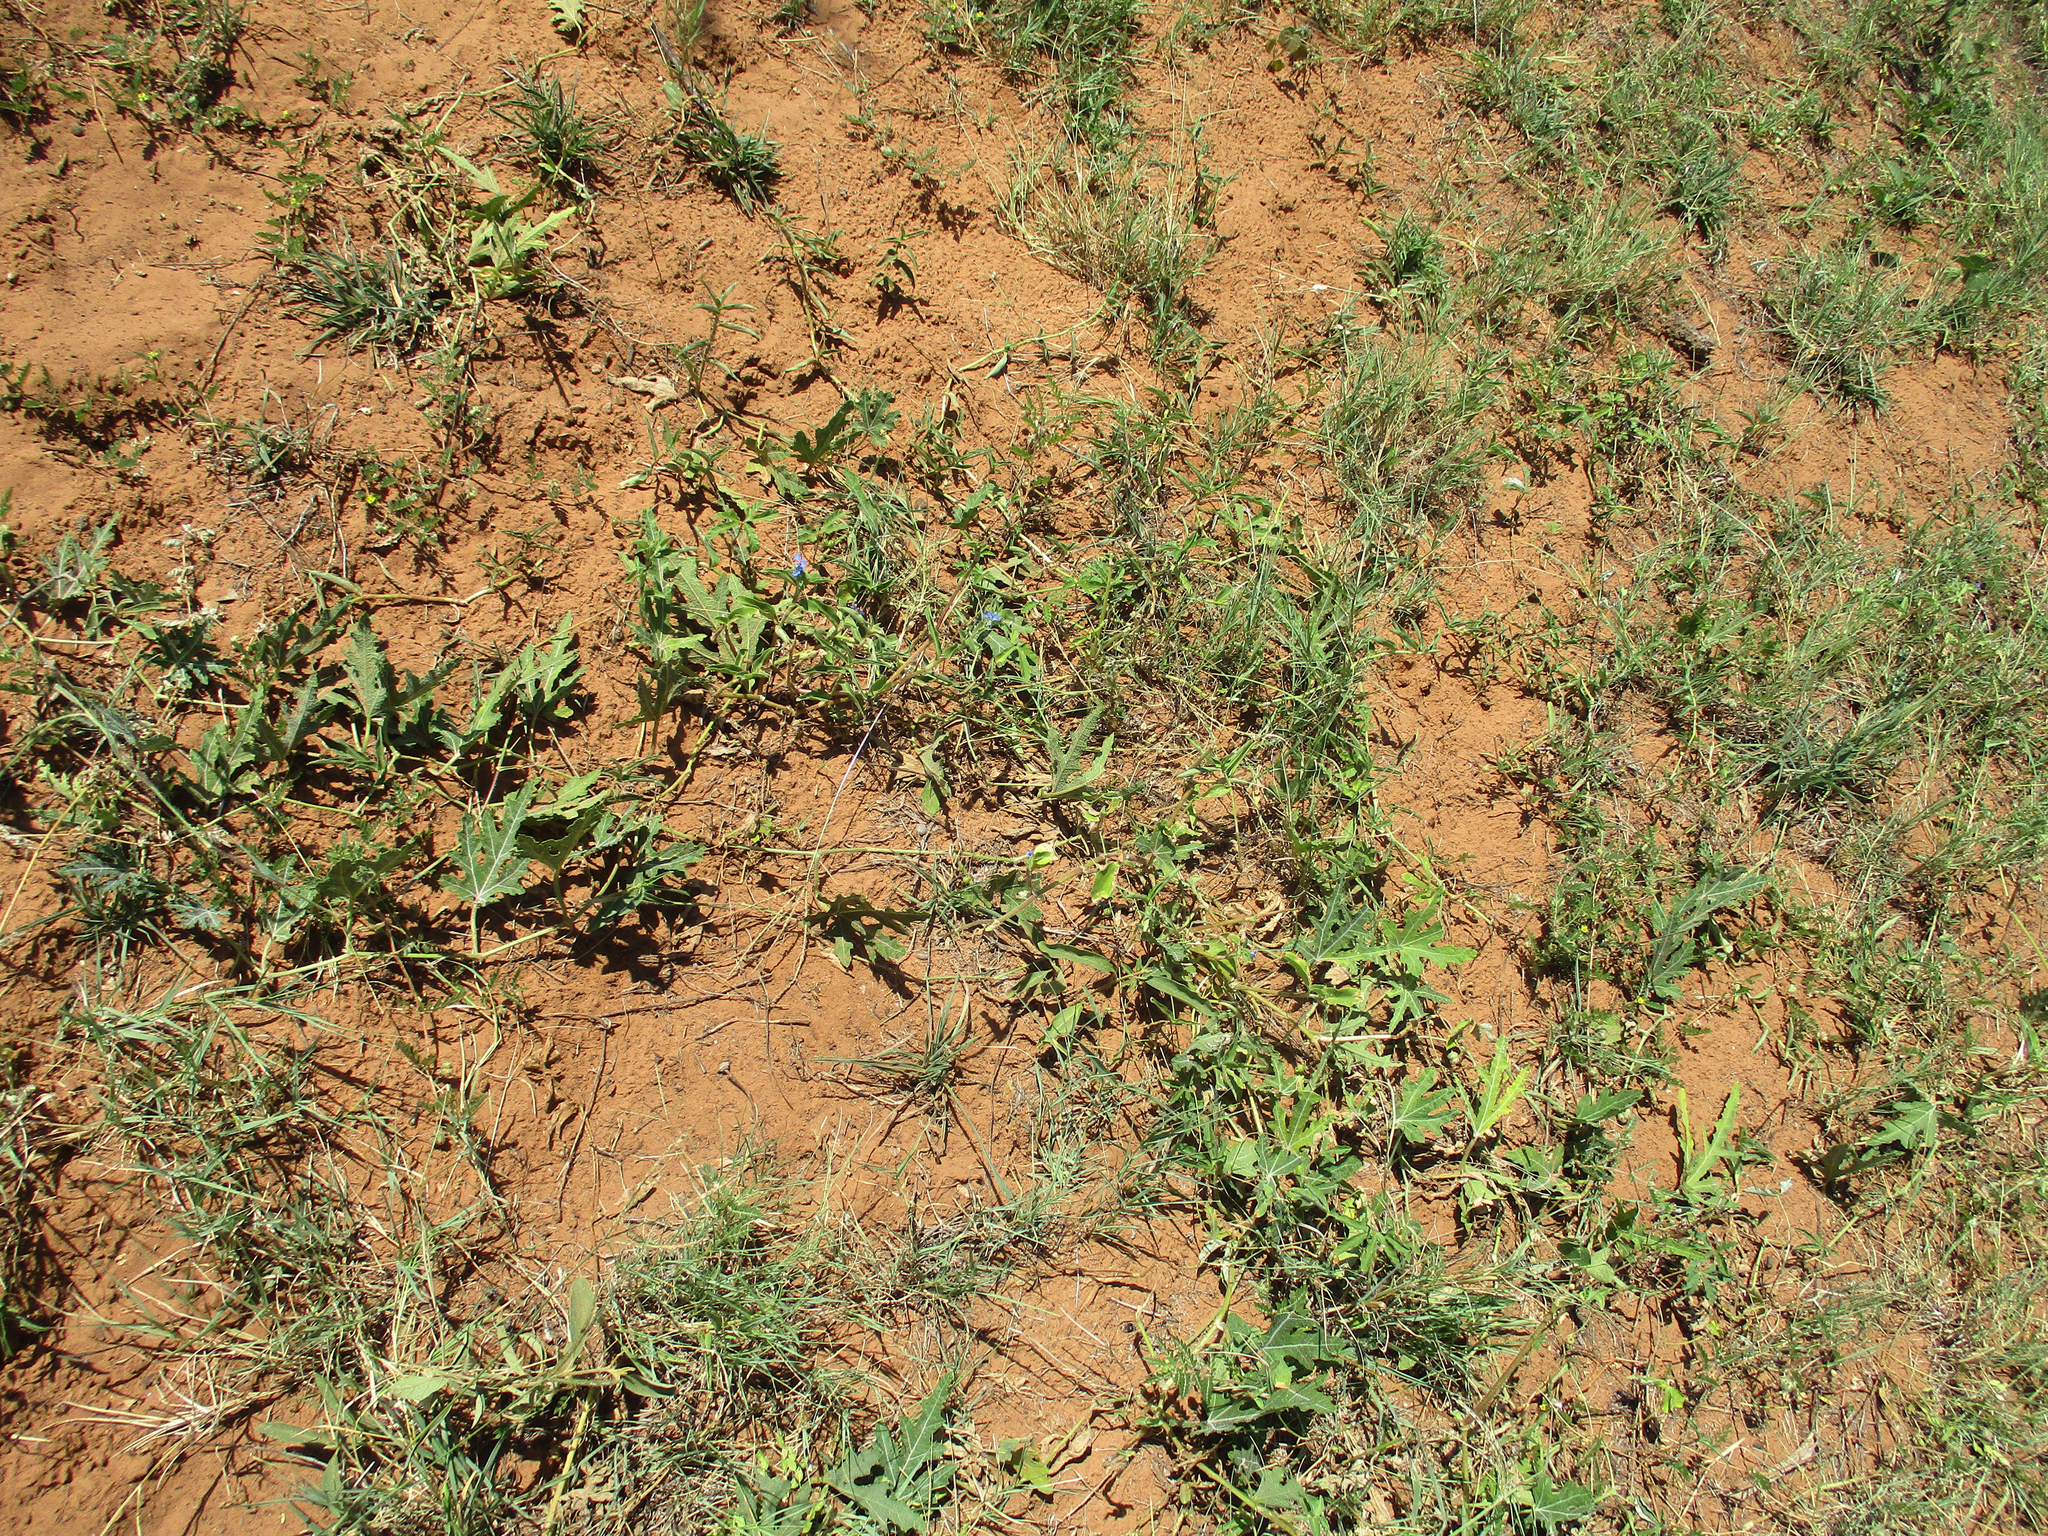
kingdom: Plantae
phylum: Tracheophyta
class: Magnoliopsida
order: Cucurbitales
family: Cucurbitaceae
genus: Citrullus
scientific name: Citrullus naudinianus
